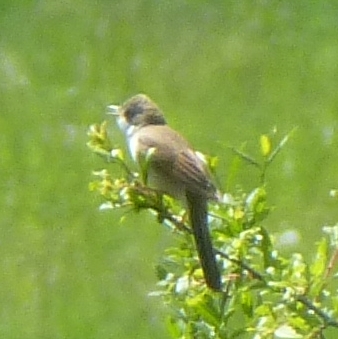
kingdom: Animalia
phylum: Chordata
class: Aves
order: Passeriformes
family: Sylviidae
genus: Sylvia
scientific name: Sylvia communis
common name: Common whitethroat
